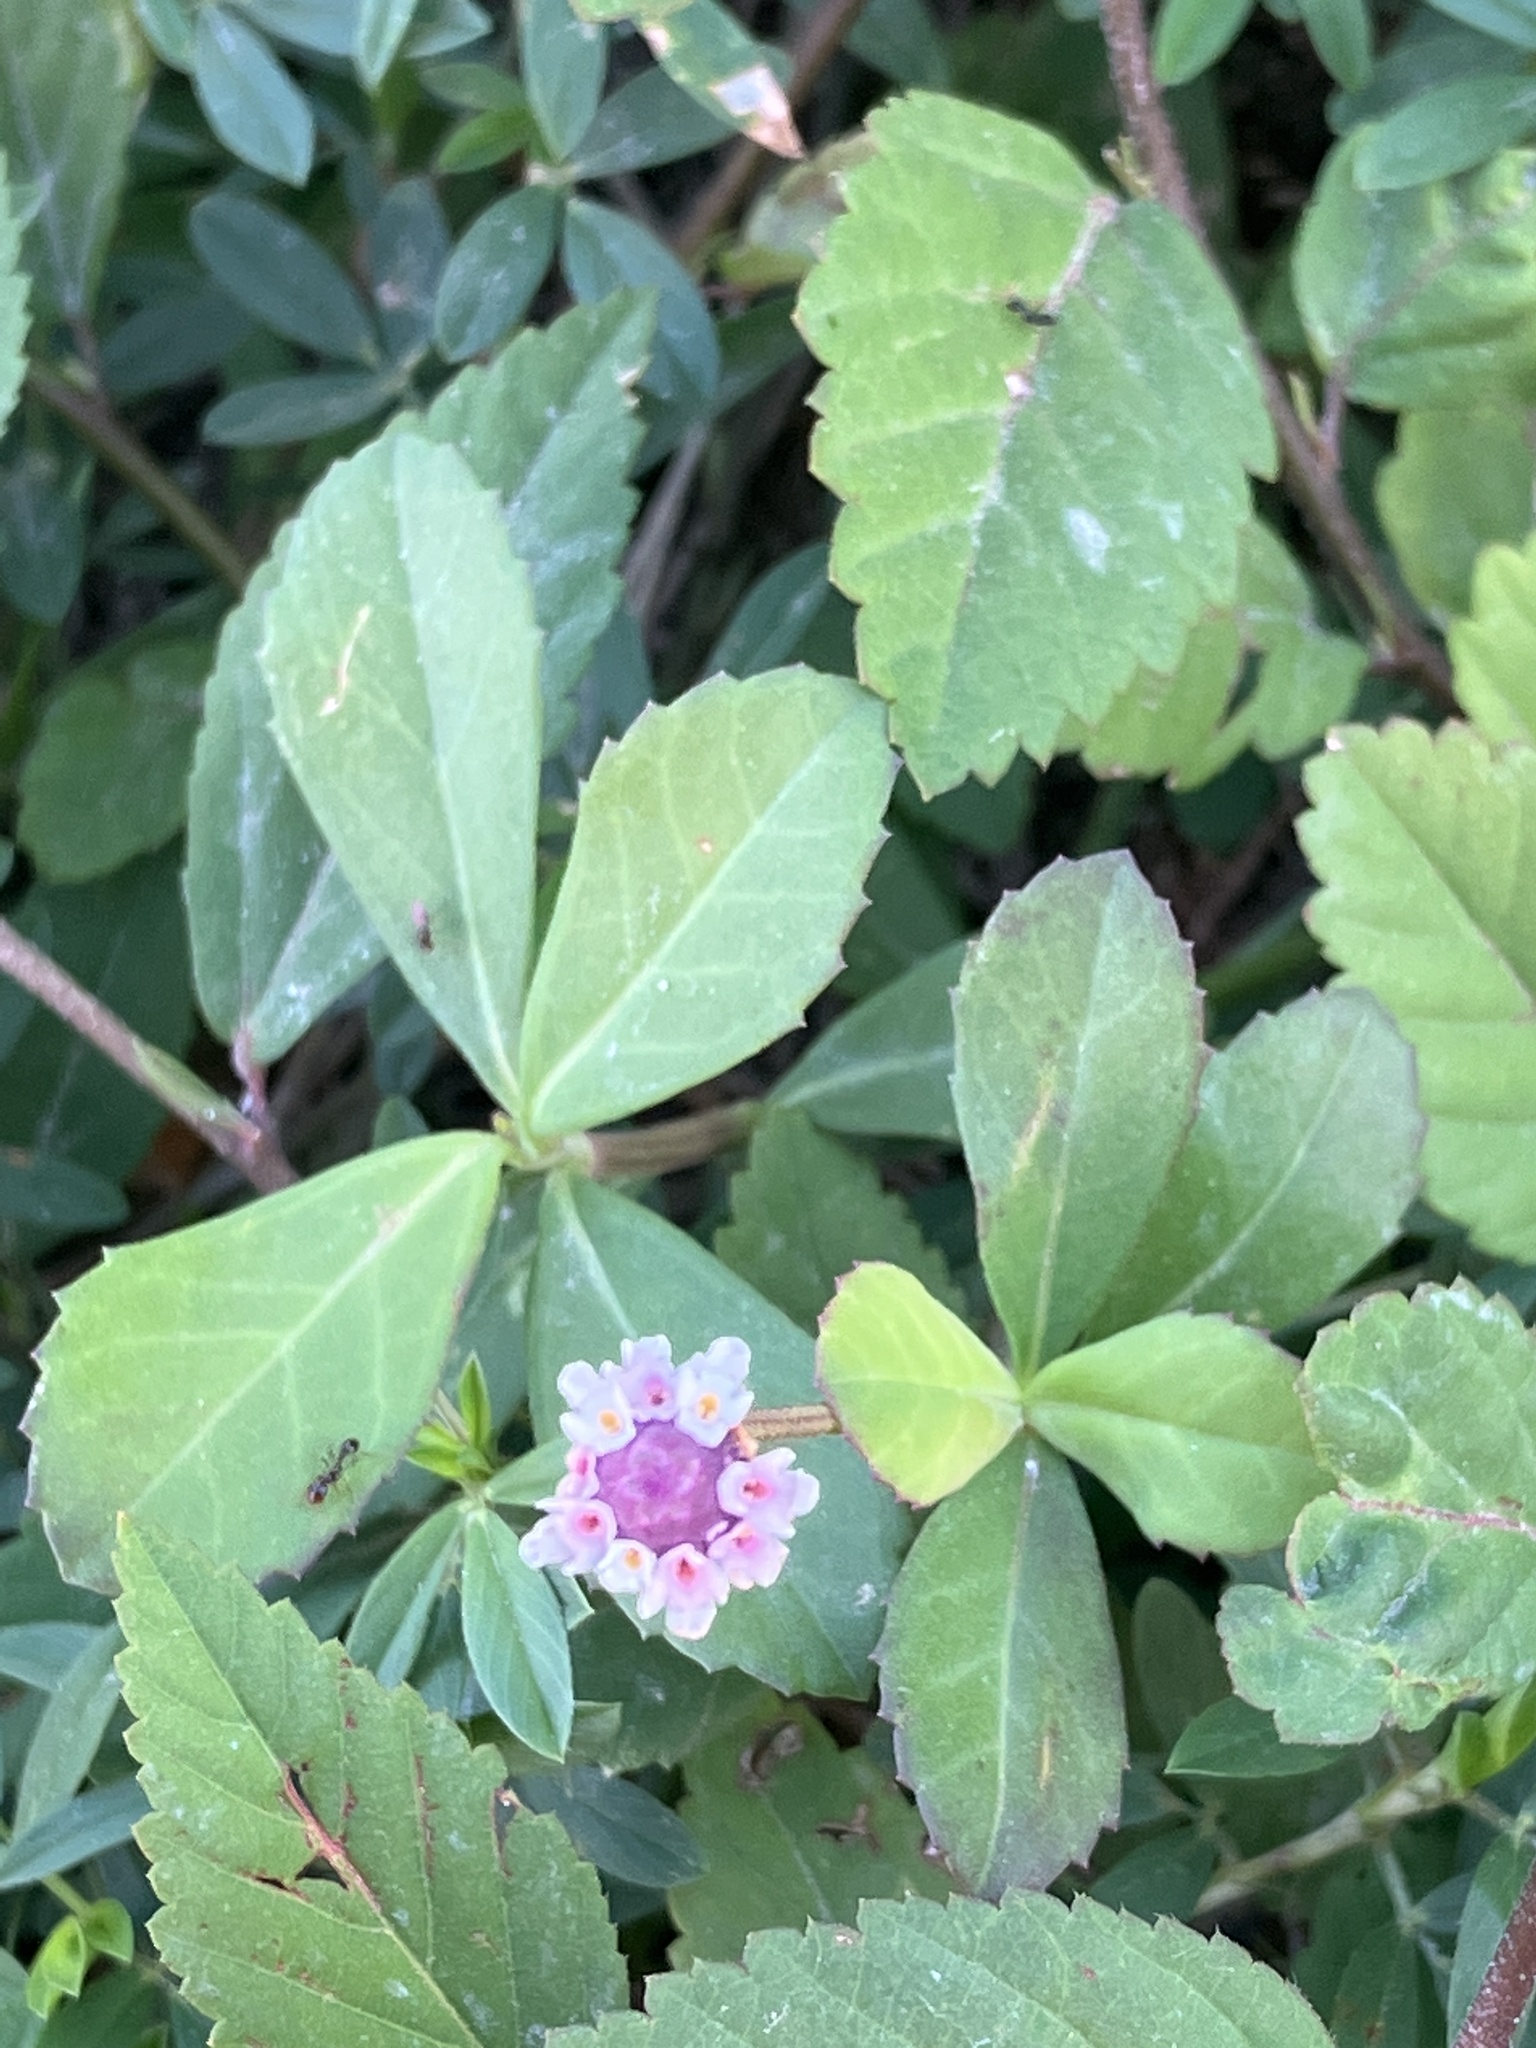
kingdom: Plantae
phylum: Tracheophyta
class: Magnoliopsida
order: Lamiales
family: Verbenaceae
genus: Phyla
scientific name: Phyla nodiflora
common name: Frogfruit
